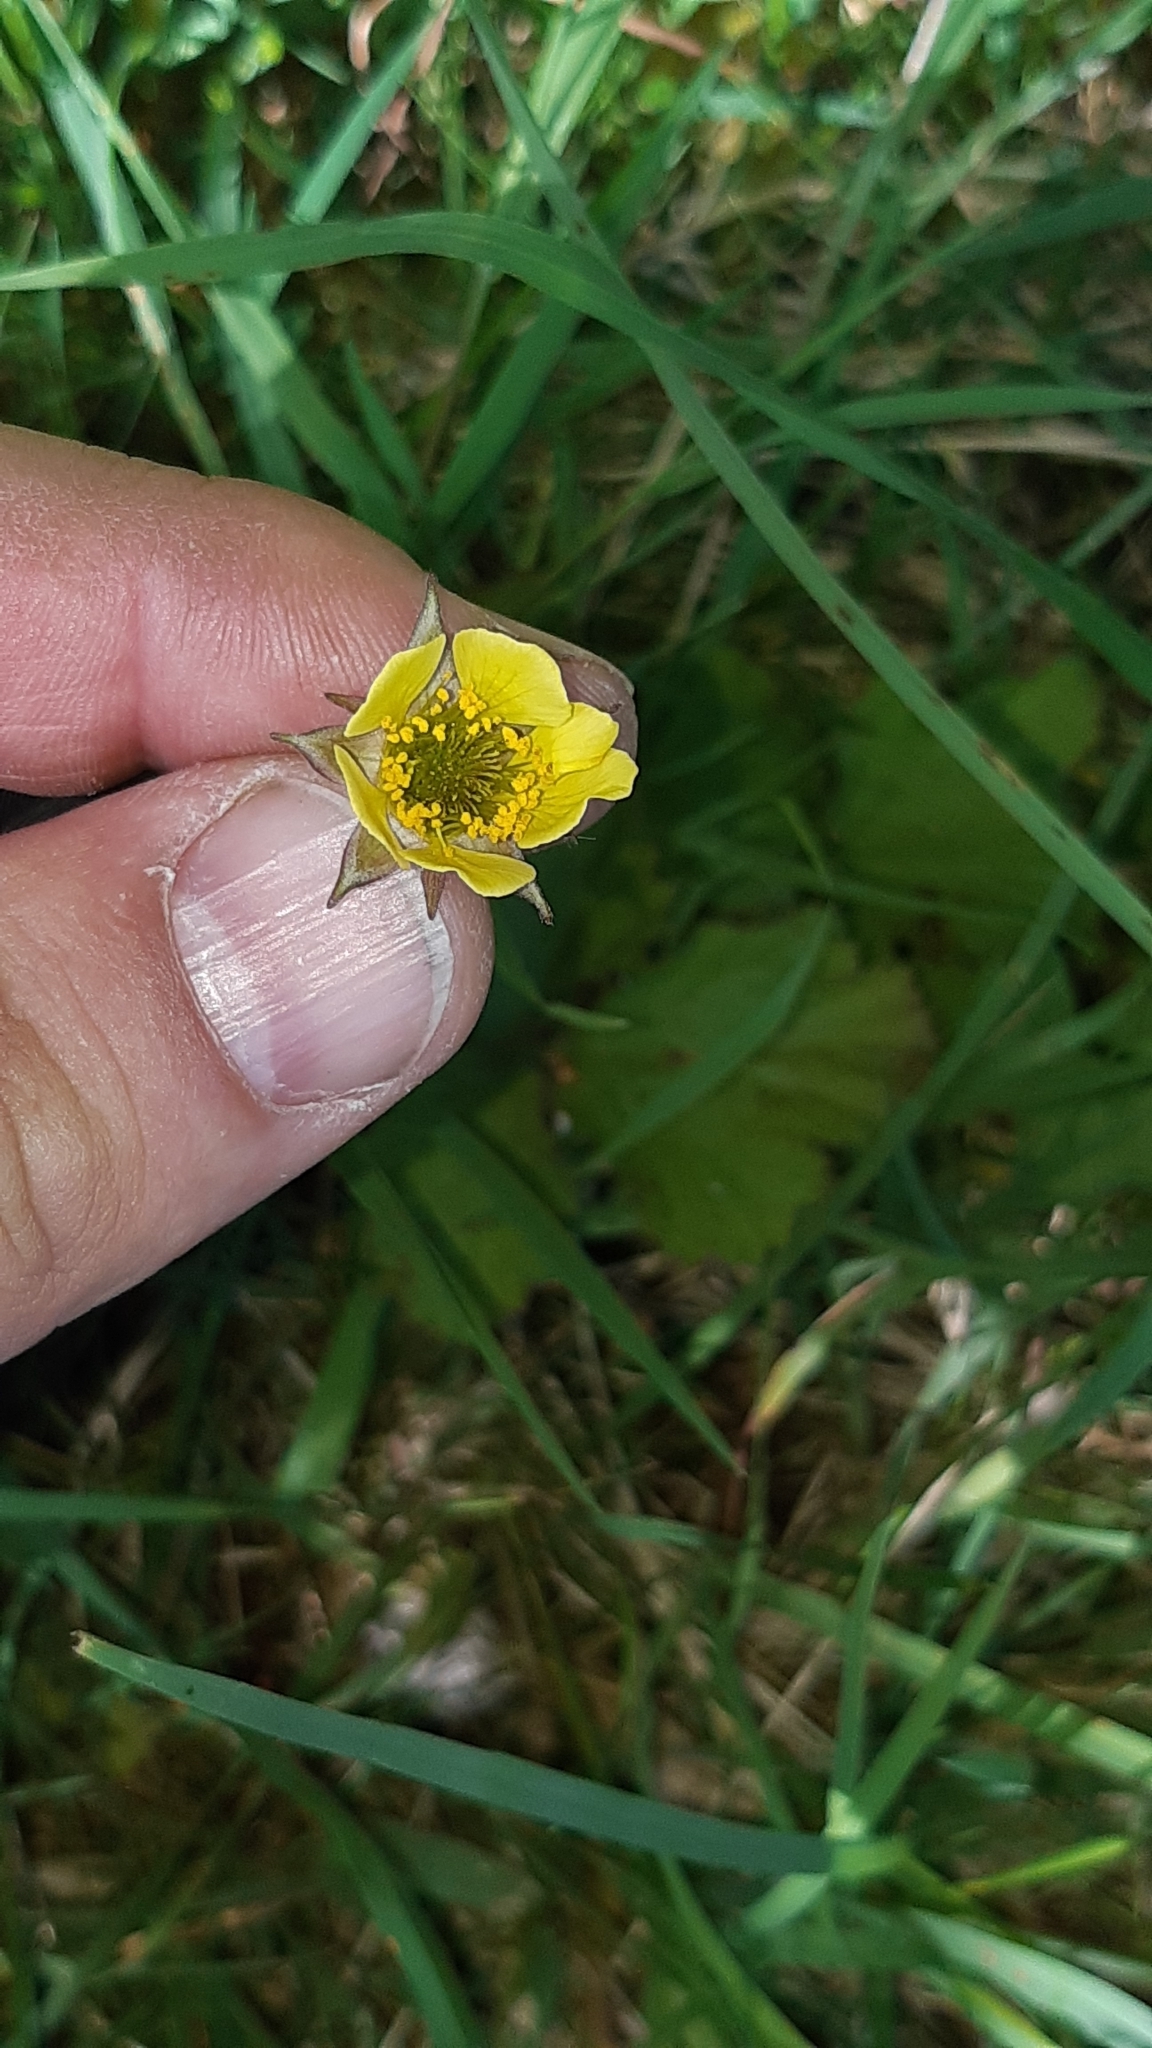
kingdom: Plantae
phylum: Tracheophyta
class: Magnoliopsida
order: Rosales
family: Rosaceae
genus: Geum
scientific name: Geum intermedium
